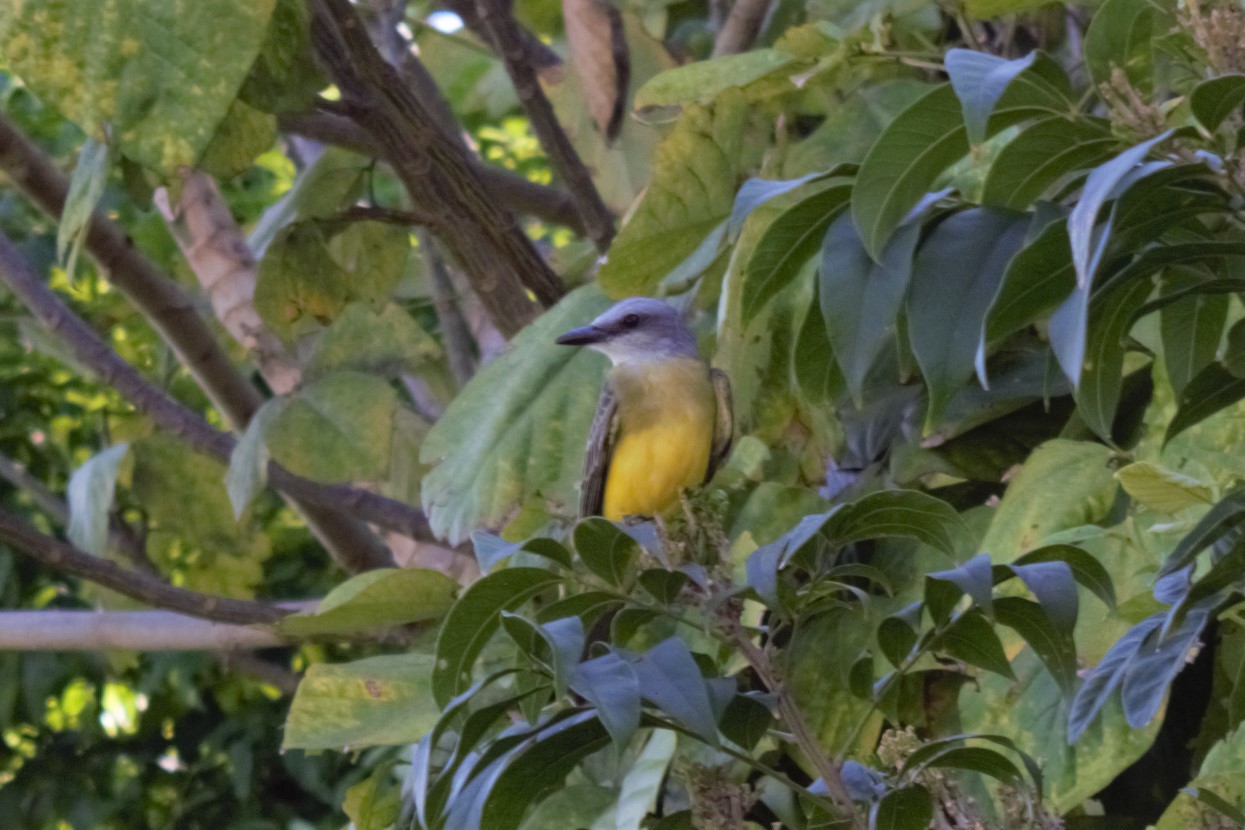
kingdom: Animalia
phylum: Chordata
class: Aves
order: Passeriformes
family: Tyrannidae
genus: Tyrannus
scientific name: Tyrannus melancholicus
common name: Tropical kingbird
